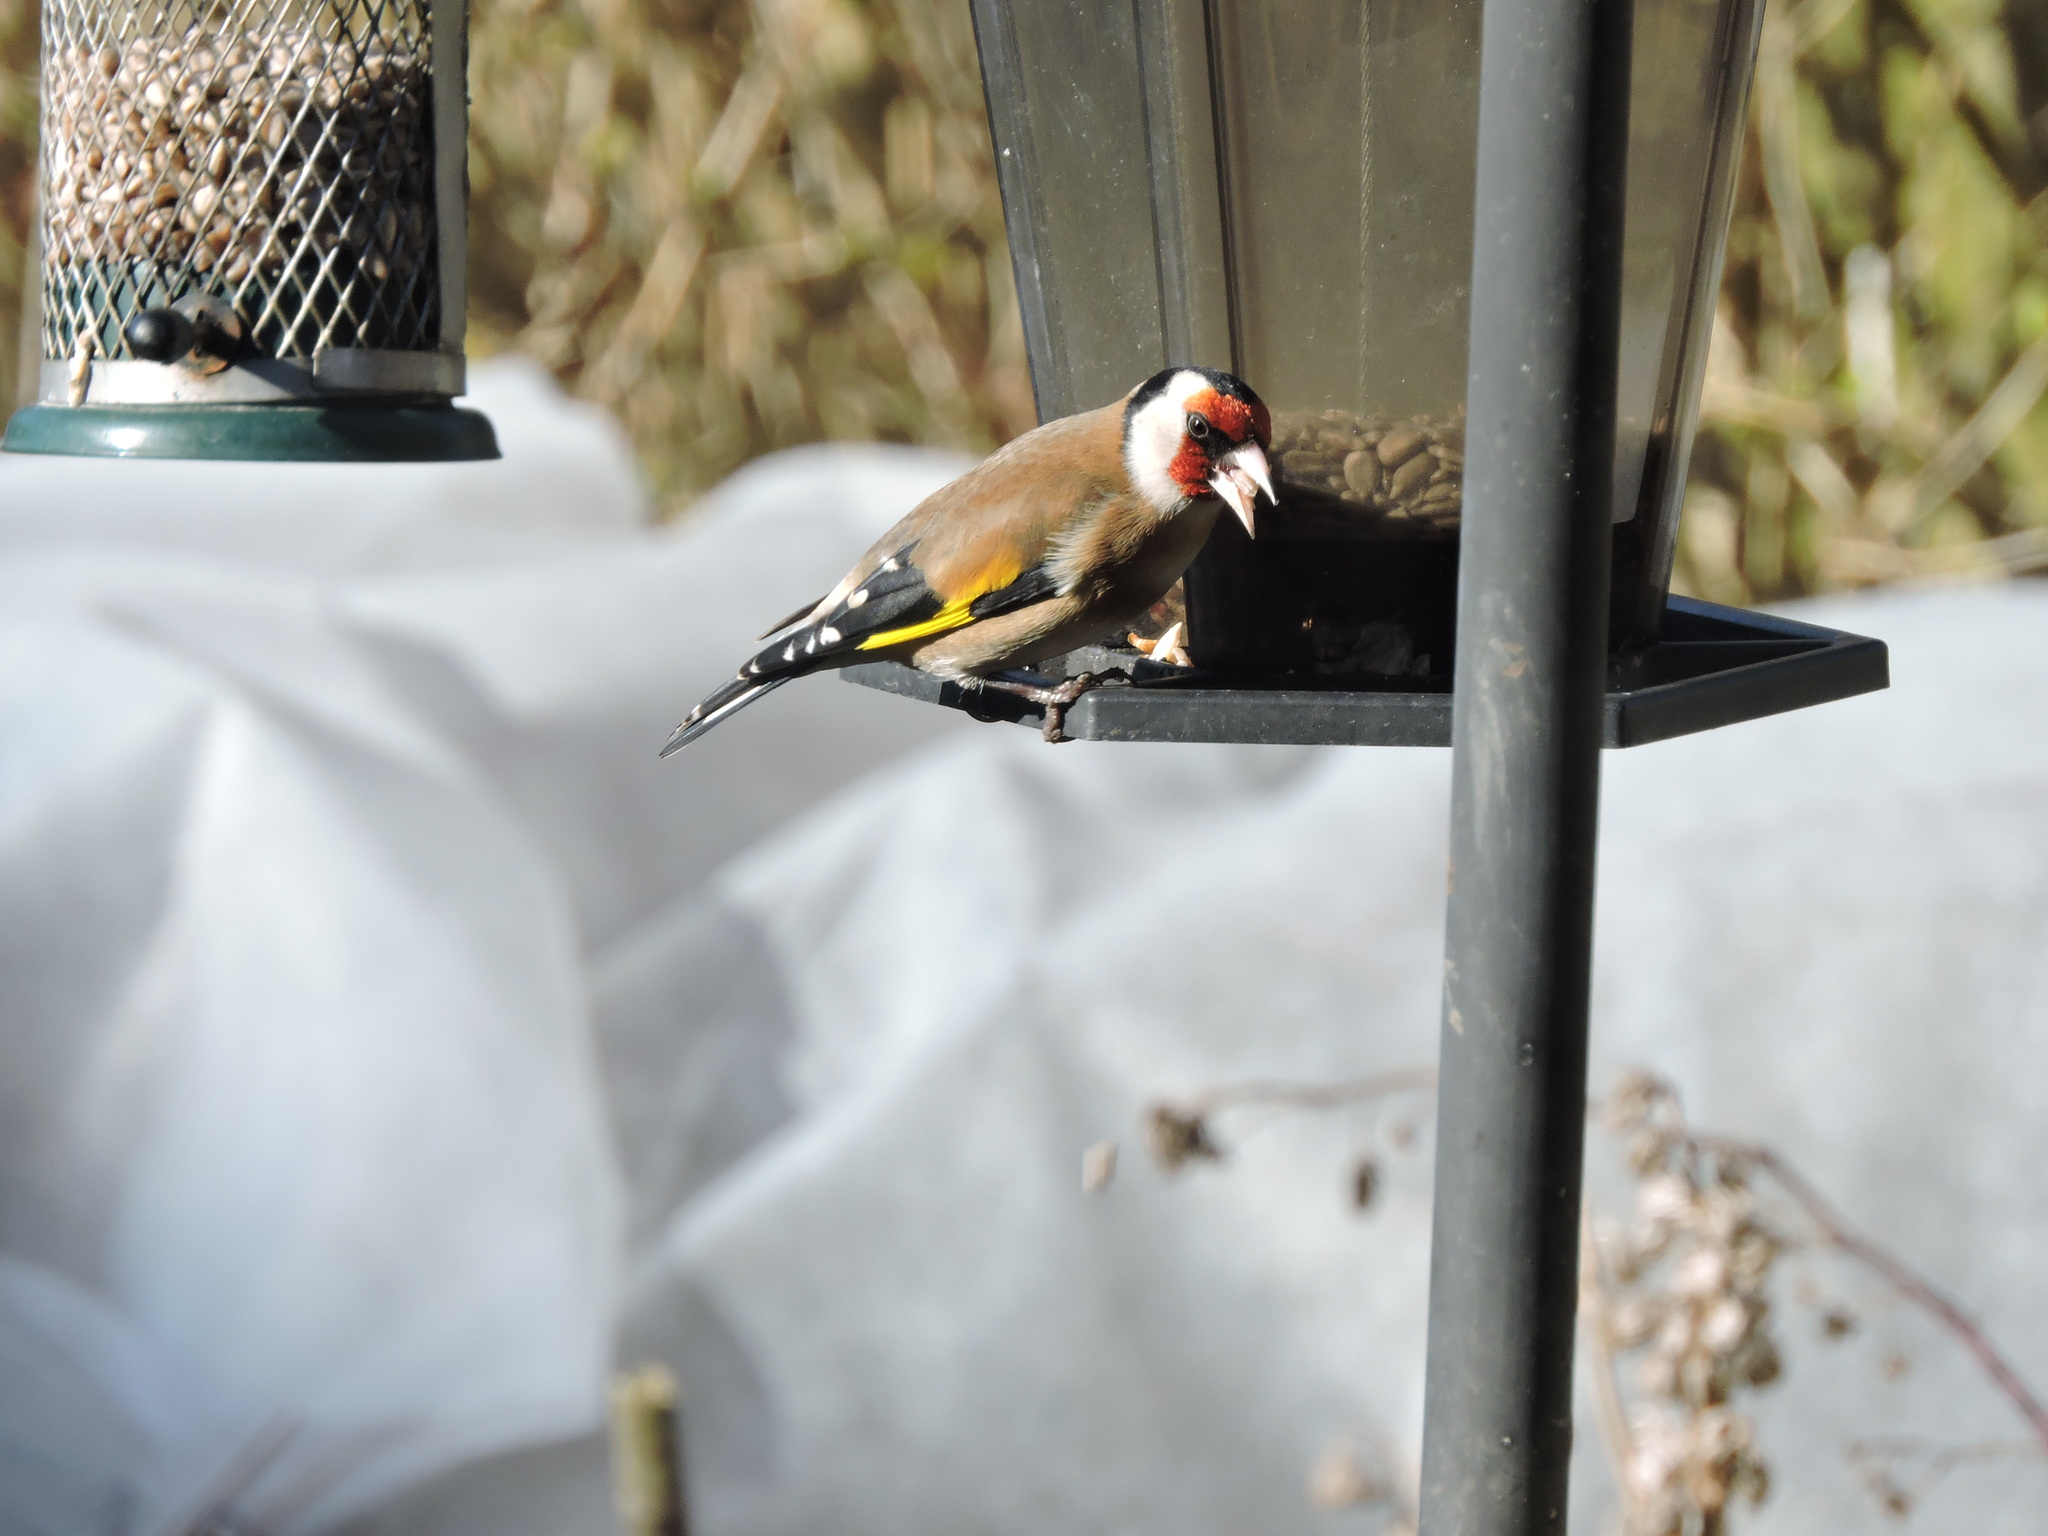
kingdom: Animalia
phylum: Chordata
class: Aves
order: Passeriformes
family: Fringillidae
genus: Carduelis
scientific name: Carduelis carduelis
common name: European goldfinch
